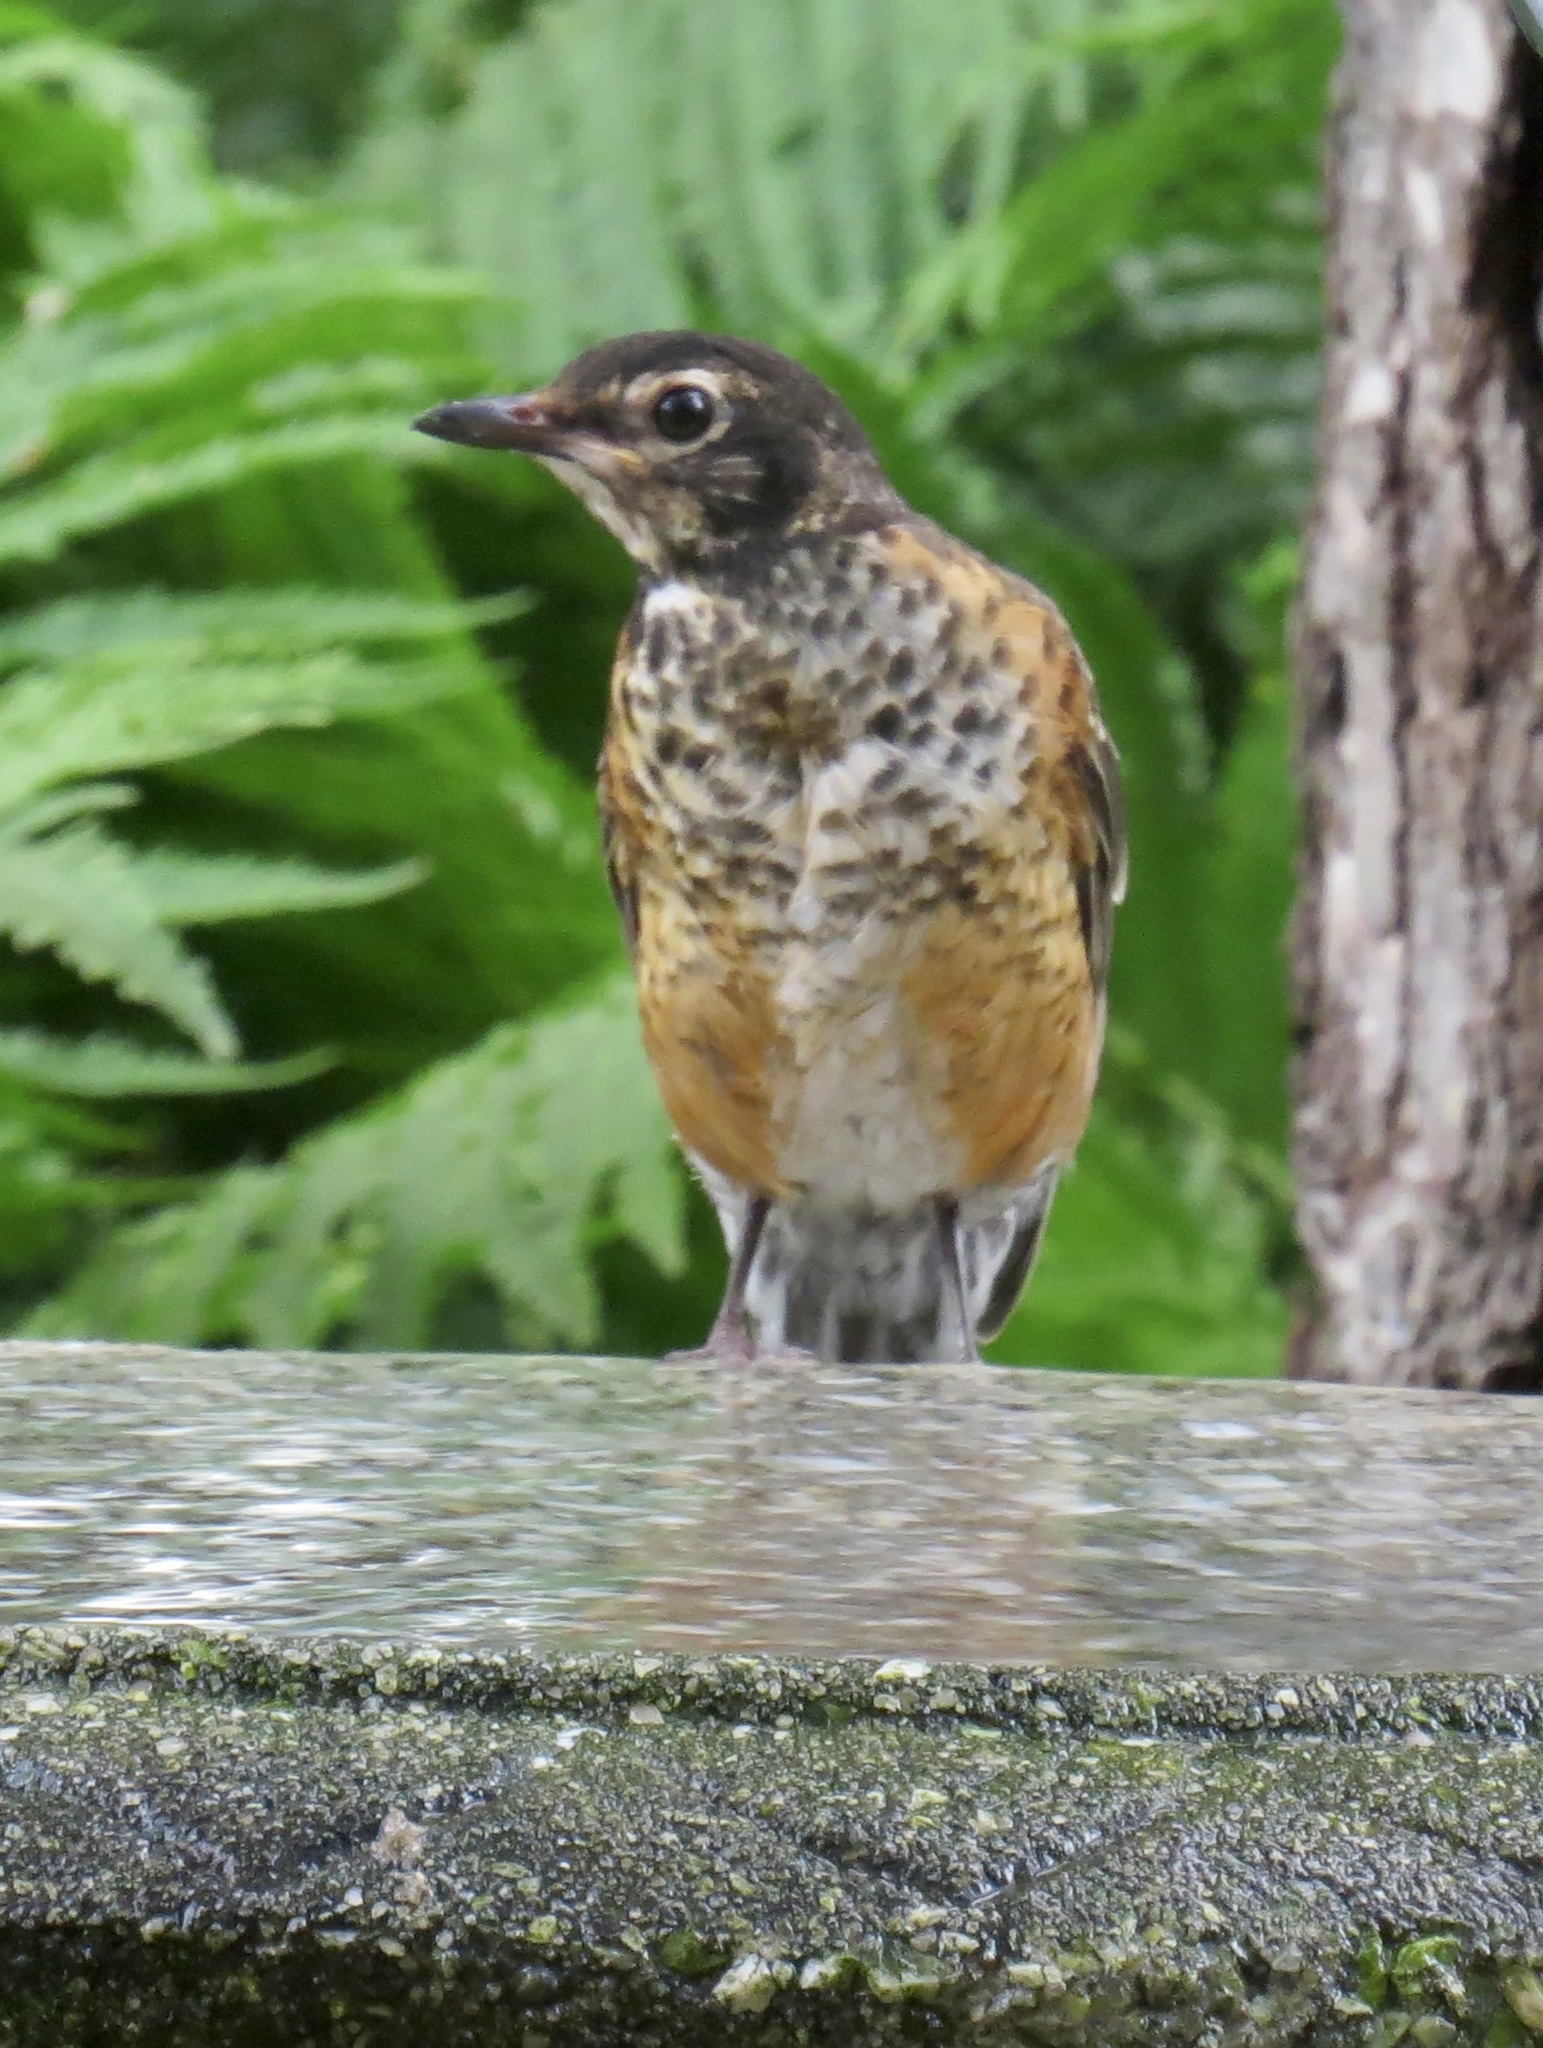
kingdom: Animalia
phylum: Chordata
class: Aves
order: Passeriformes
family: Turdidae
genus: Turdus
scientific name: Turdus migratorius
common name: American robin
